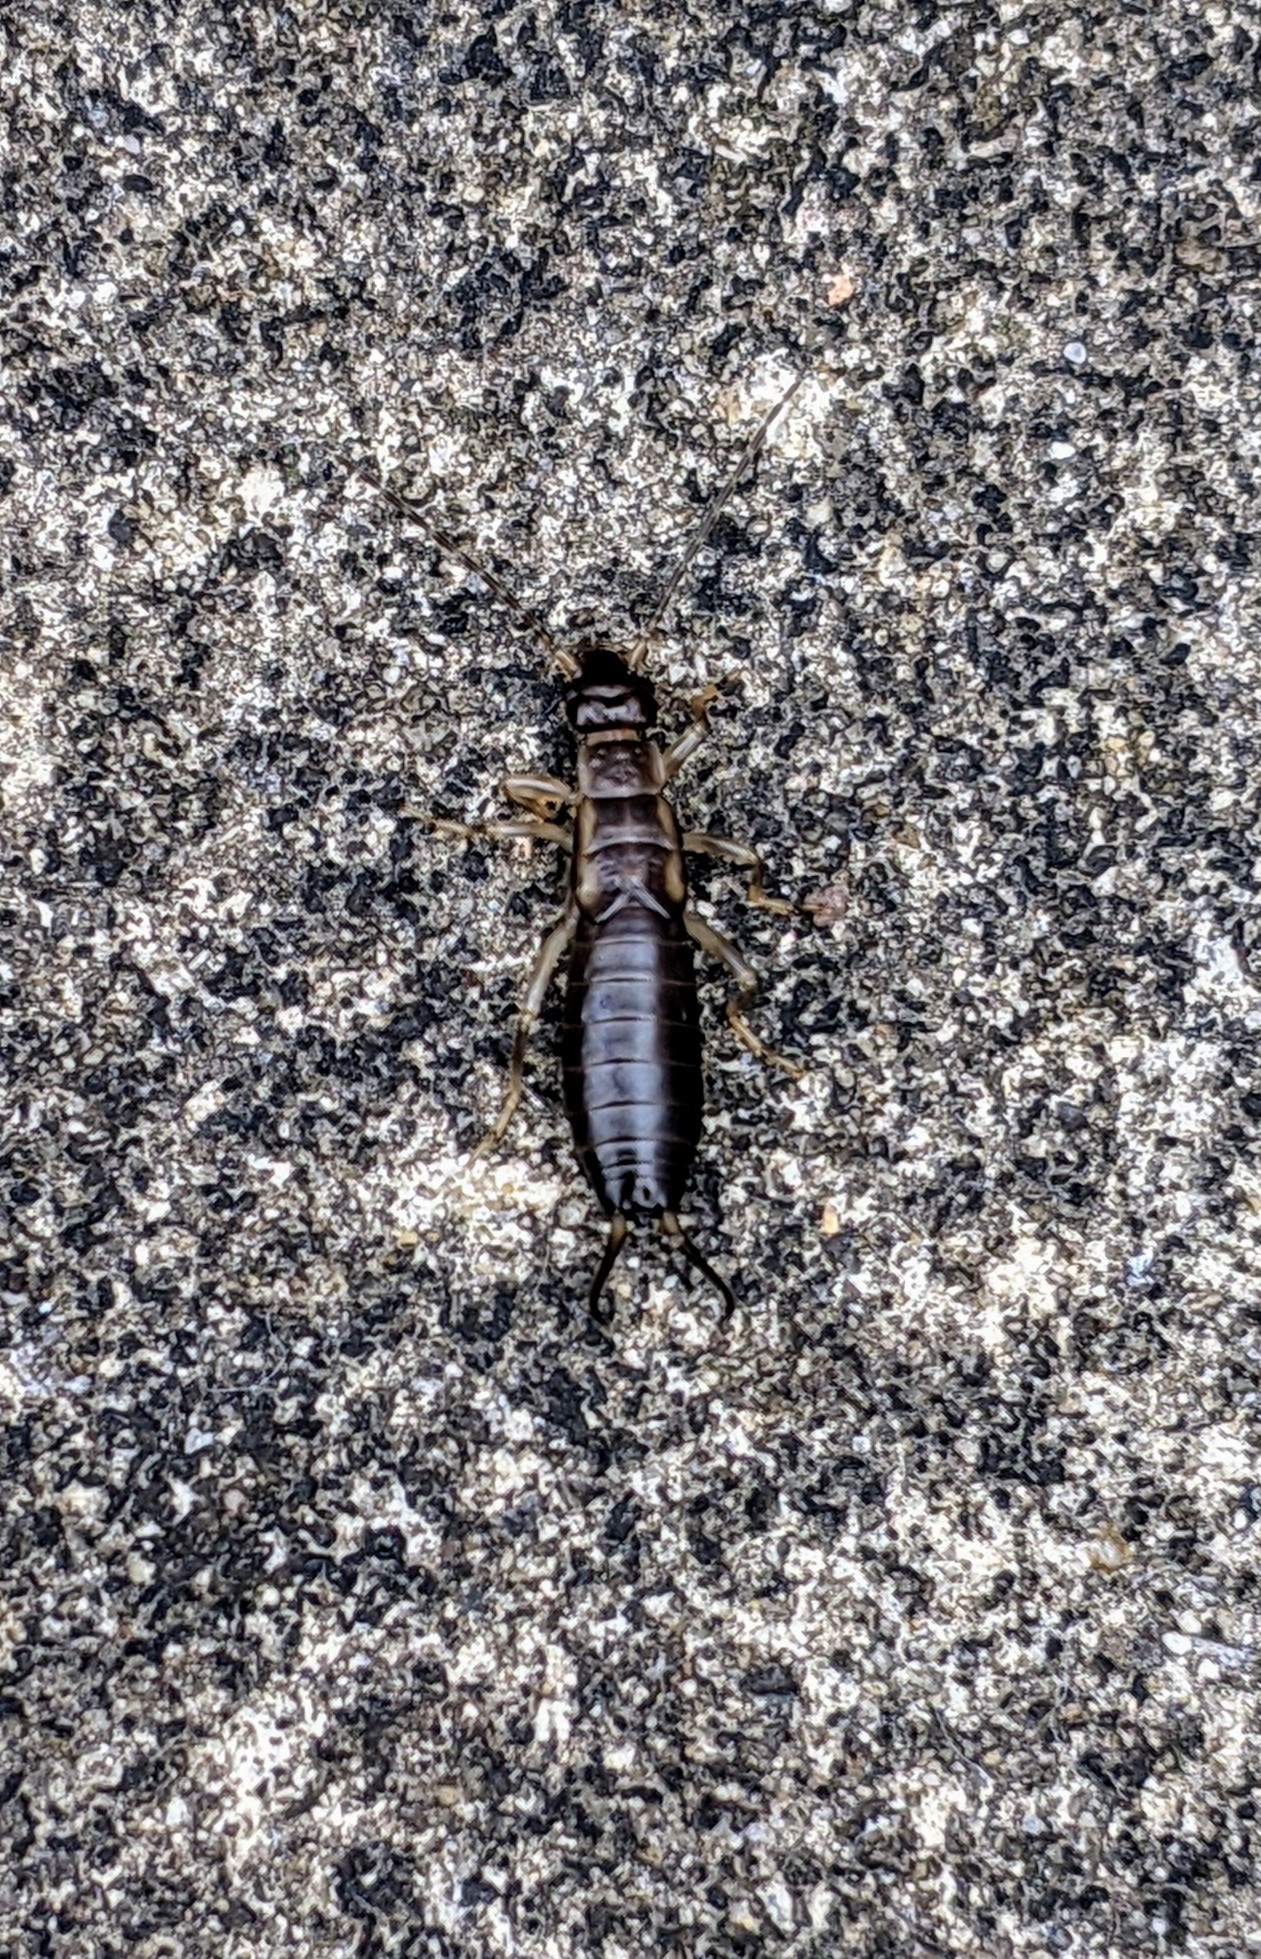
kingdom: Animalia
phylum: Arthropoda
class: Insecta
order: Dermaptera
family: Forficulidae
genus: Forficula
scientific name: Forficula
